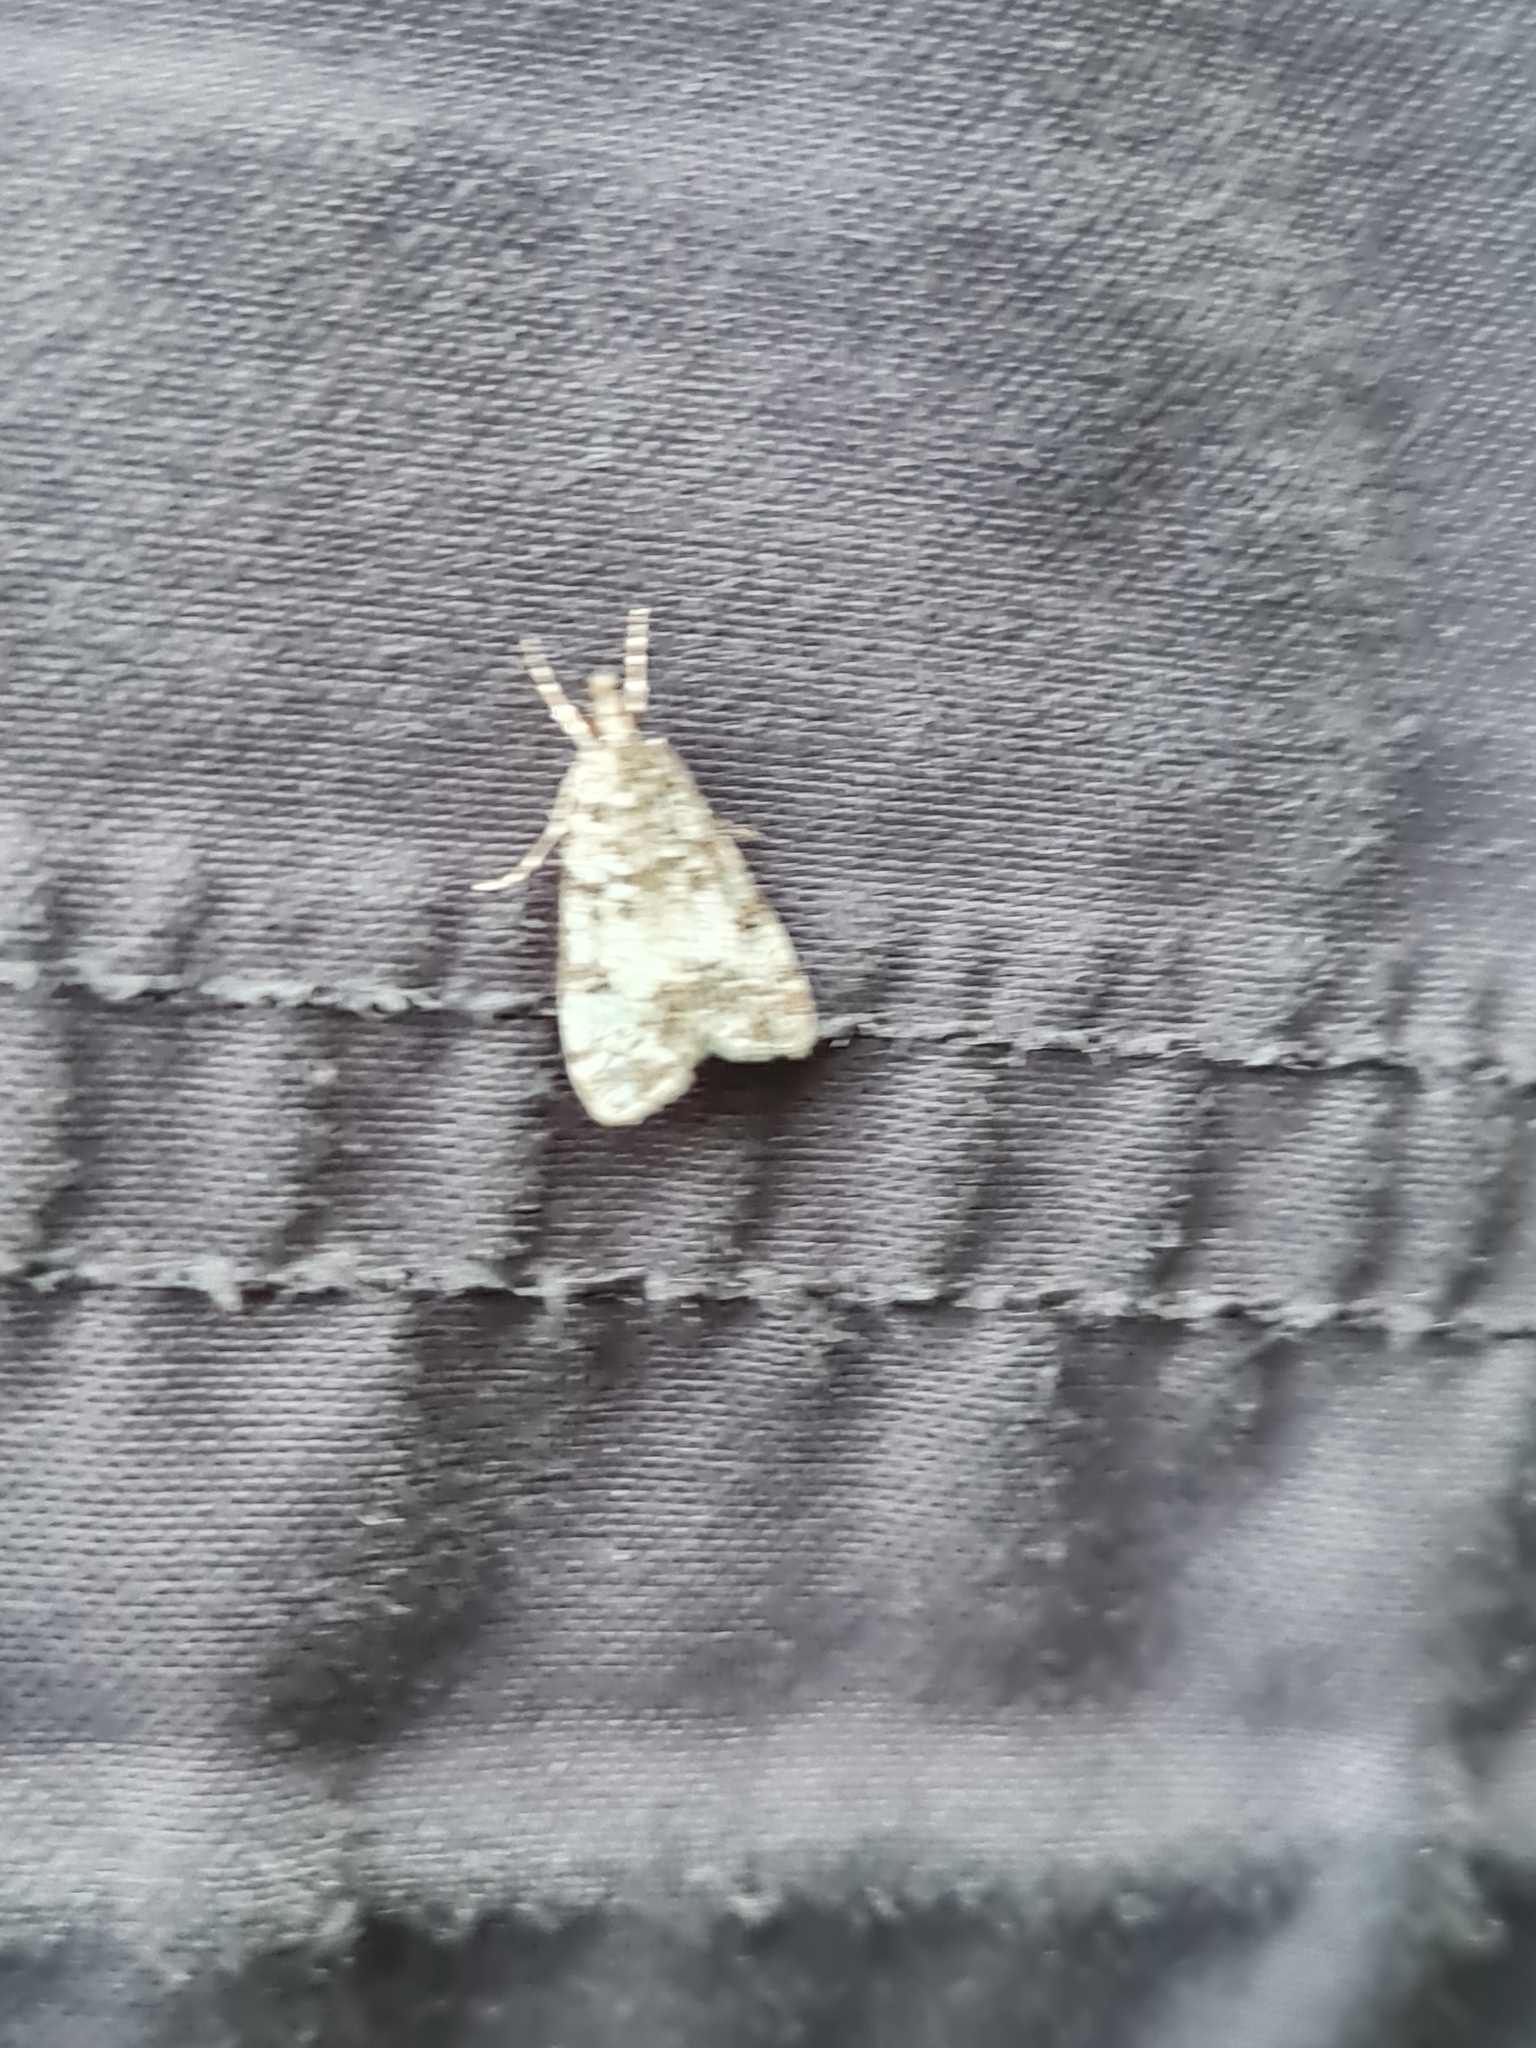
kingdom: Animalia
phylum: Arthropoda
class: Insecta
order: Lepidoptera
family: Crambidae
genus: Eudonia
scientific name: Eudonia lacustrata
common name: Little grey
